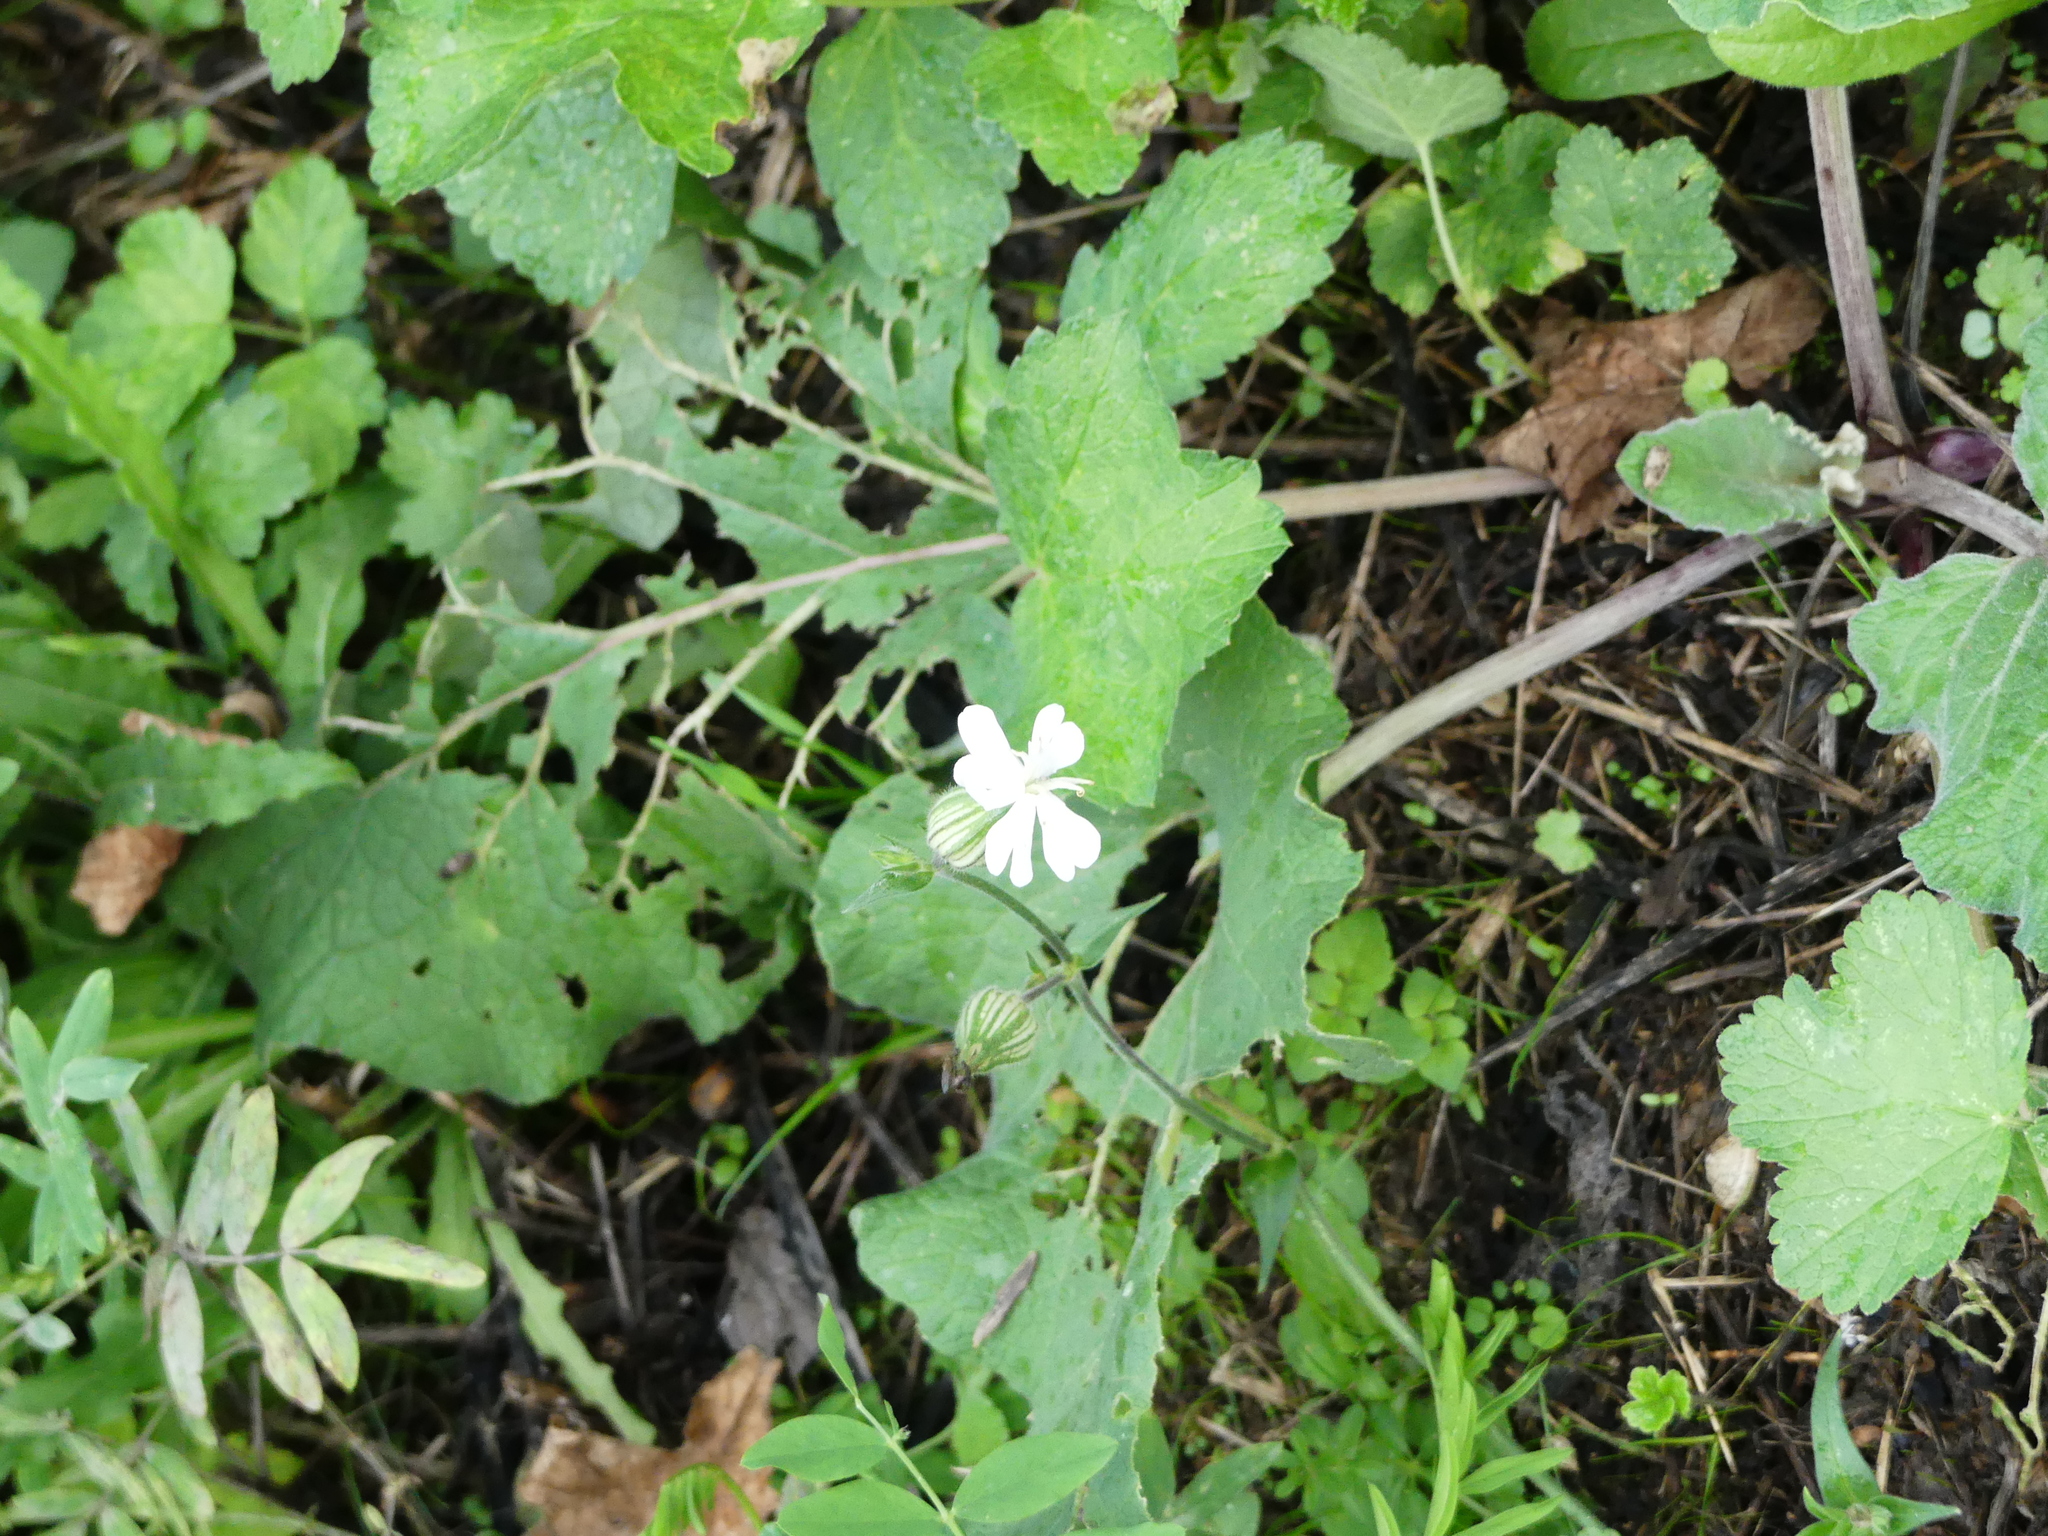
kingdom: Plantae
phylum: Tracheophyta
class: Magnoliopsida
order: Caryophyllales
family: Caryophyllaceae
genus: Silene
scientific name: Silene latifolia
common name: White campion
